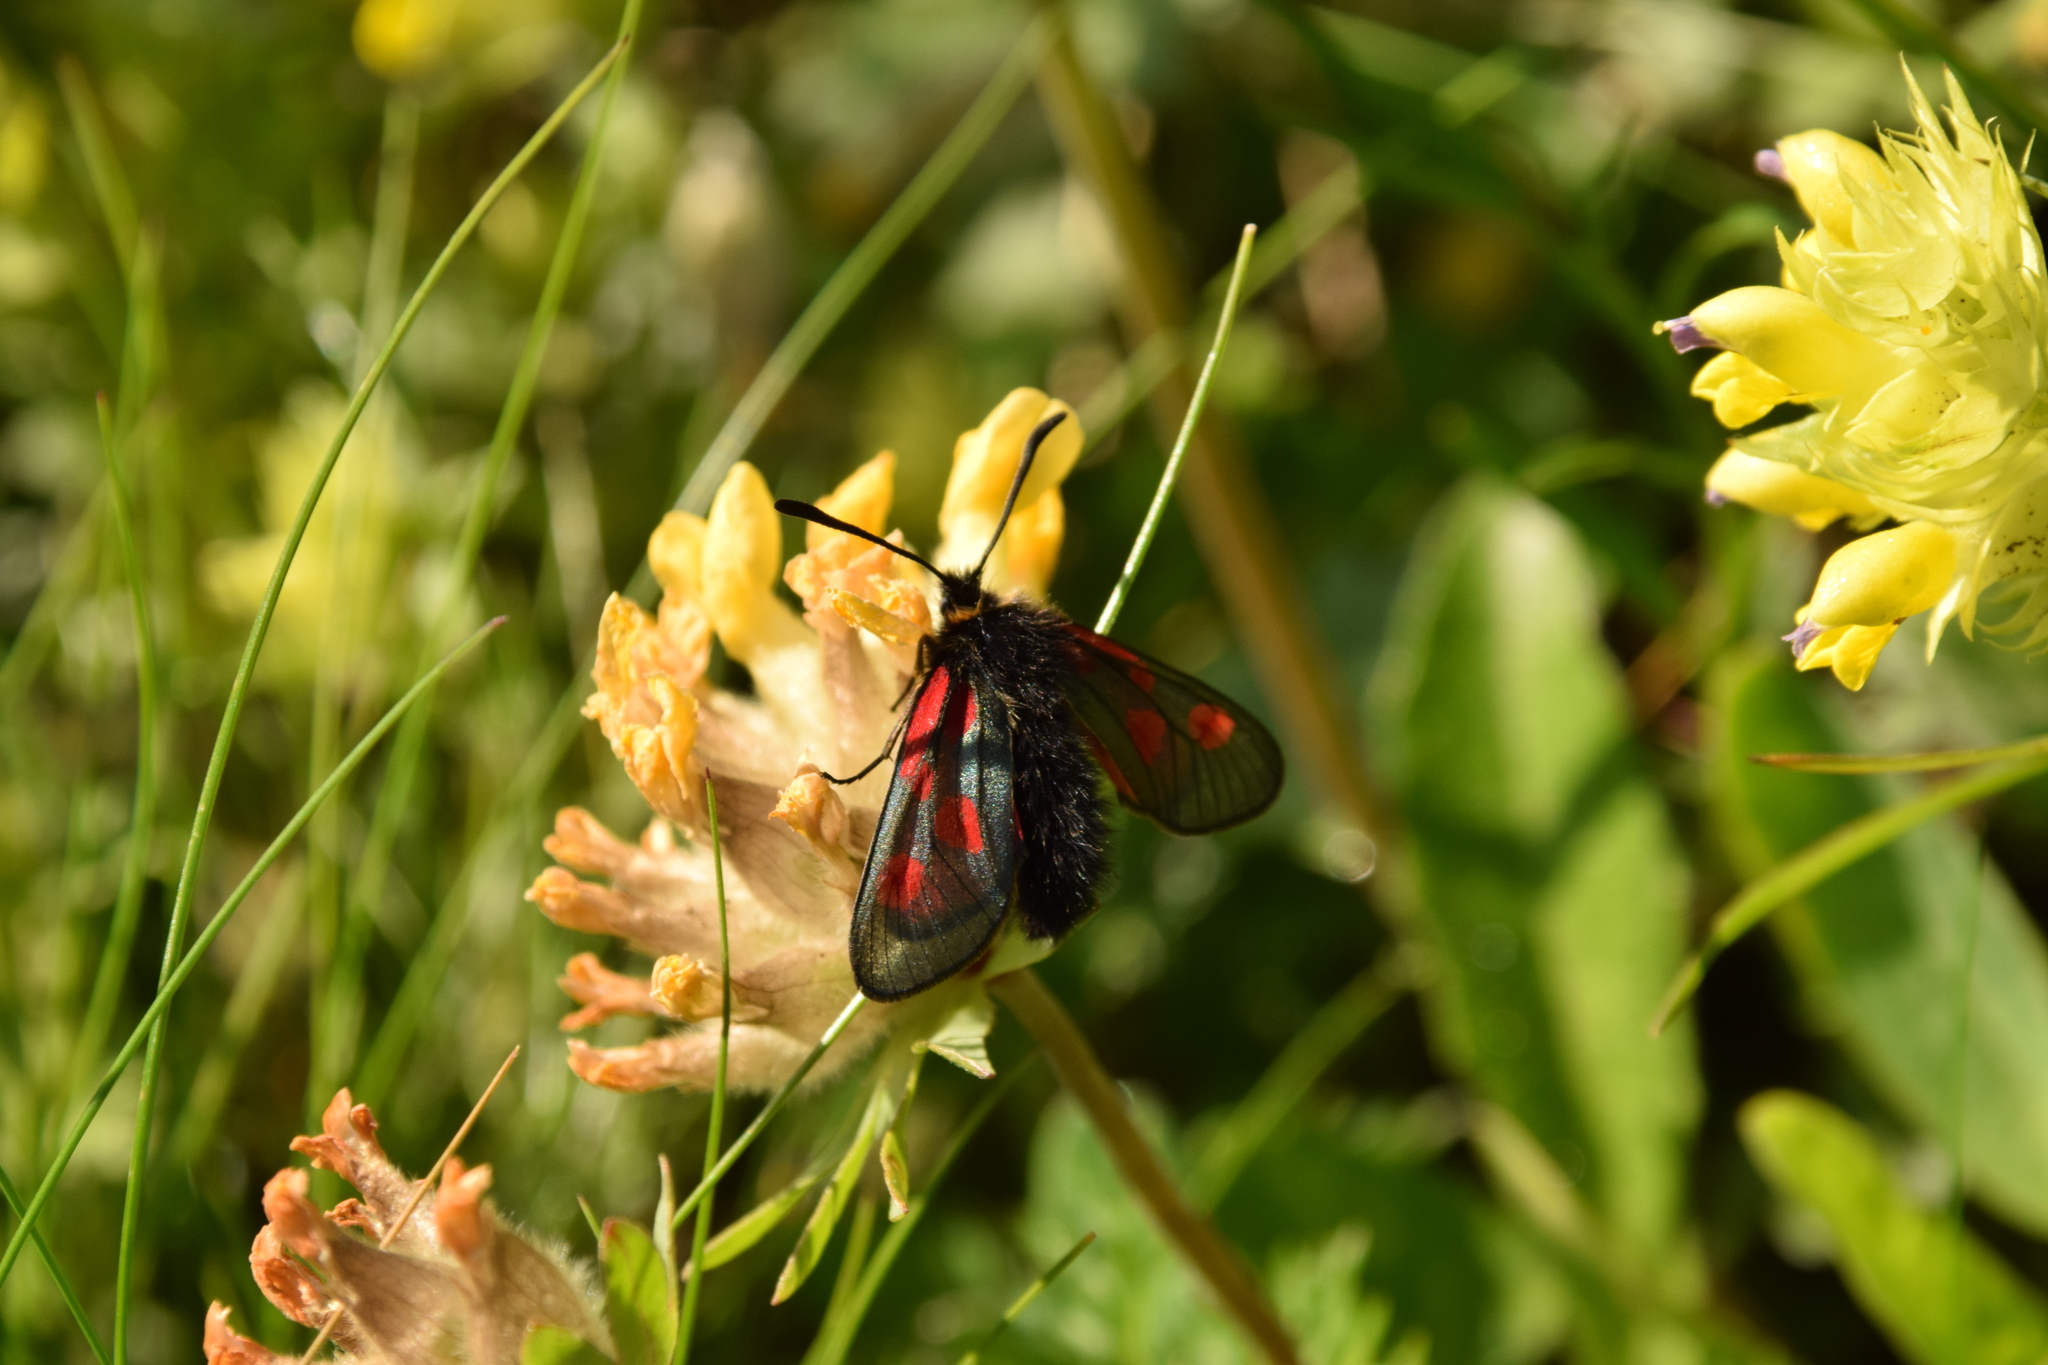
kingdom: Animalia
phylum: Arthropoda
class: Insecta
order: Lepidoptera
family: Zygaenidae
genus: Zygaena
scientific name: Zygaena exulans
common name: Scotch burnet
